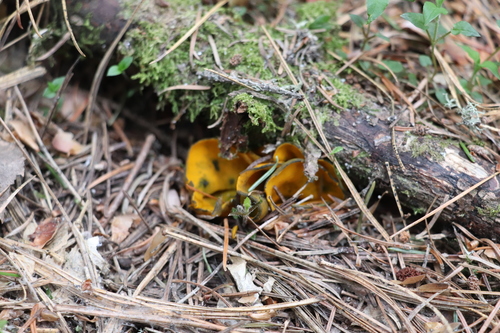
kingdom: Fungi
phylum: Ascomycota
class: Pezizomycetes
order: Pezizales
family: Caloscyphaceae
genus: Caloscypha
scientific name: Caloscypha fulgens
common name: Golden cup
